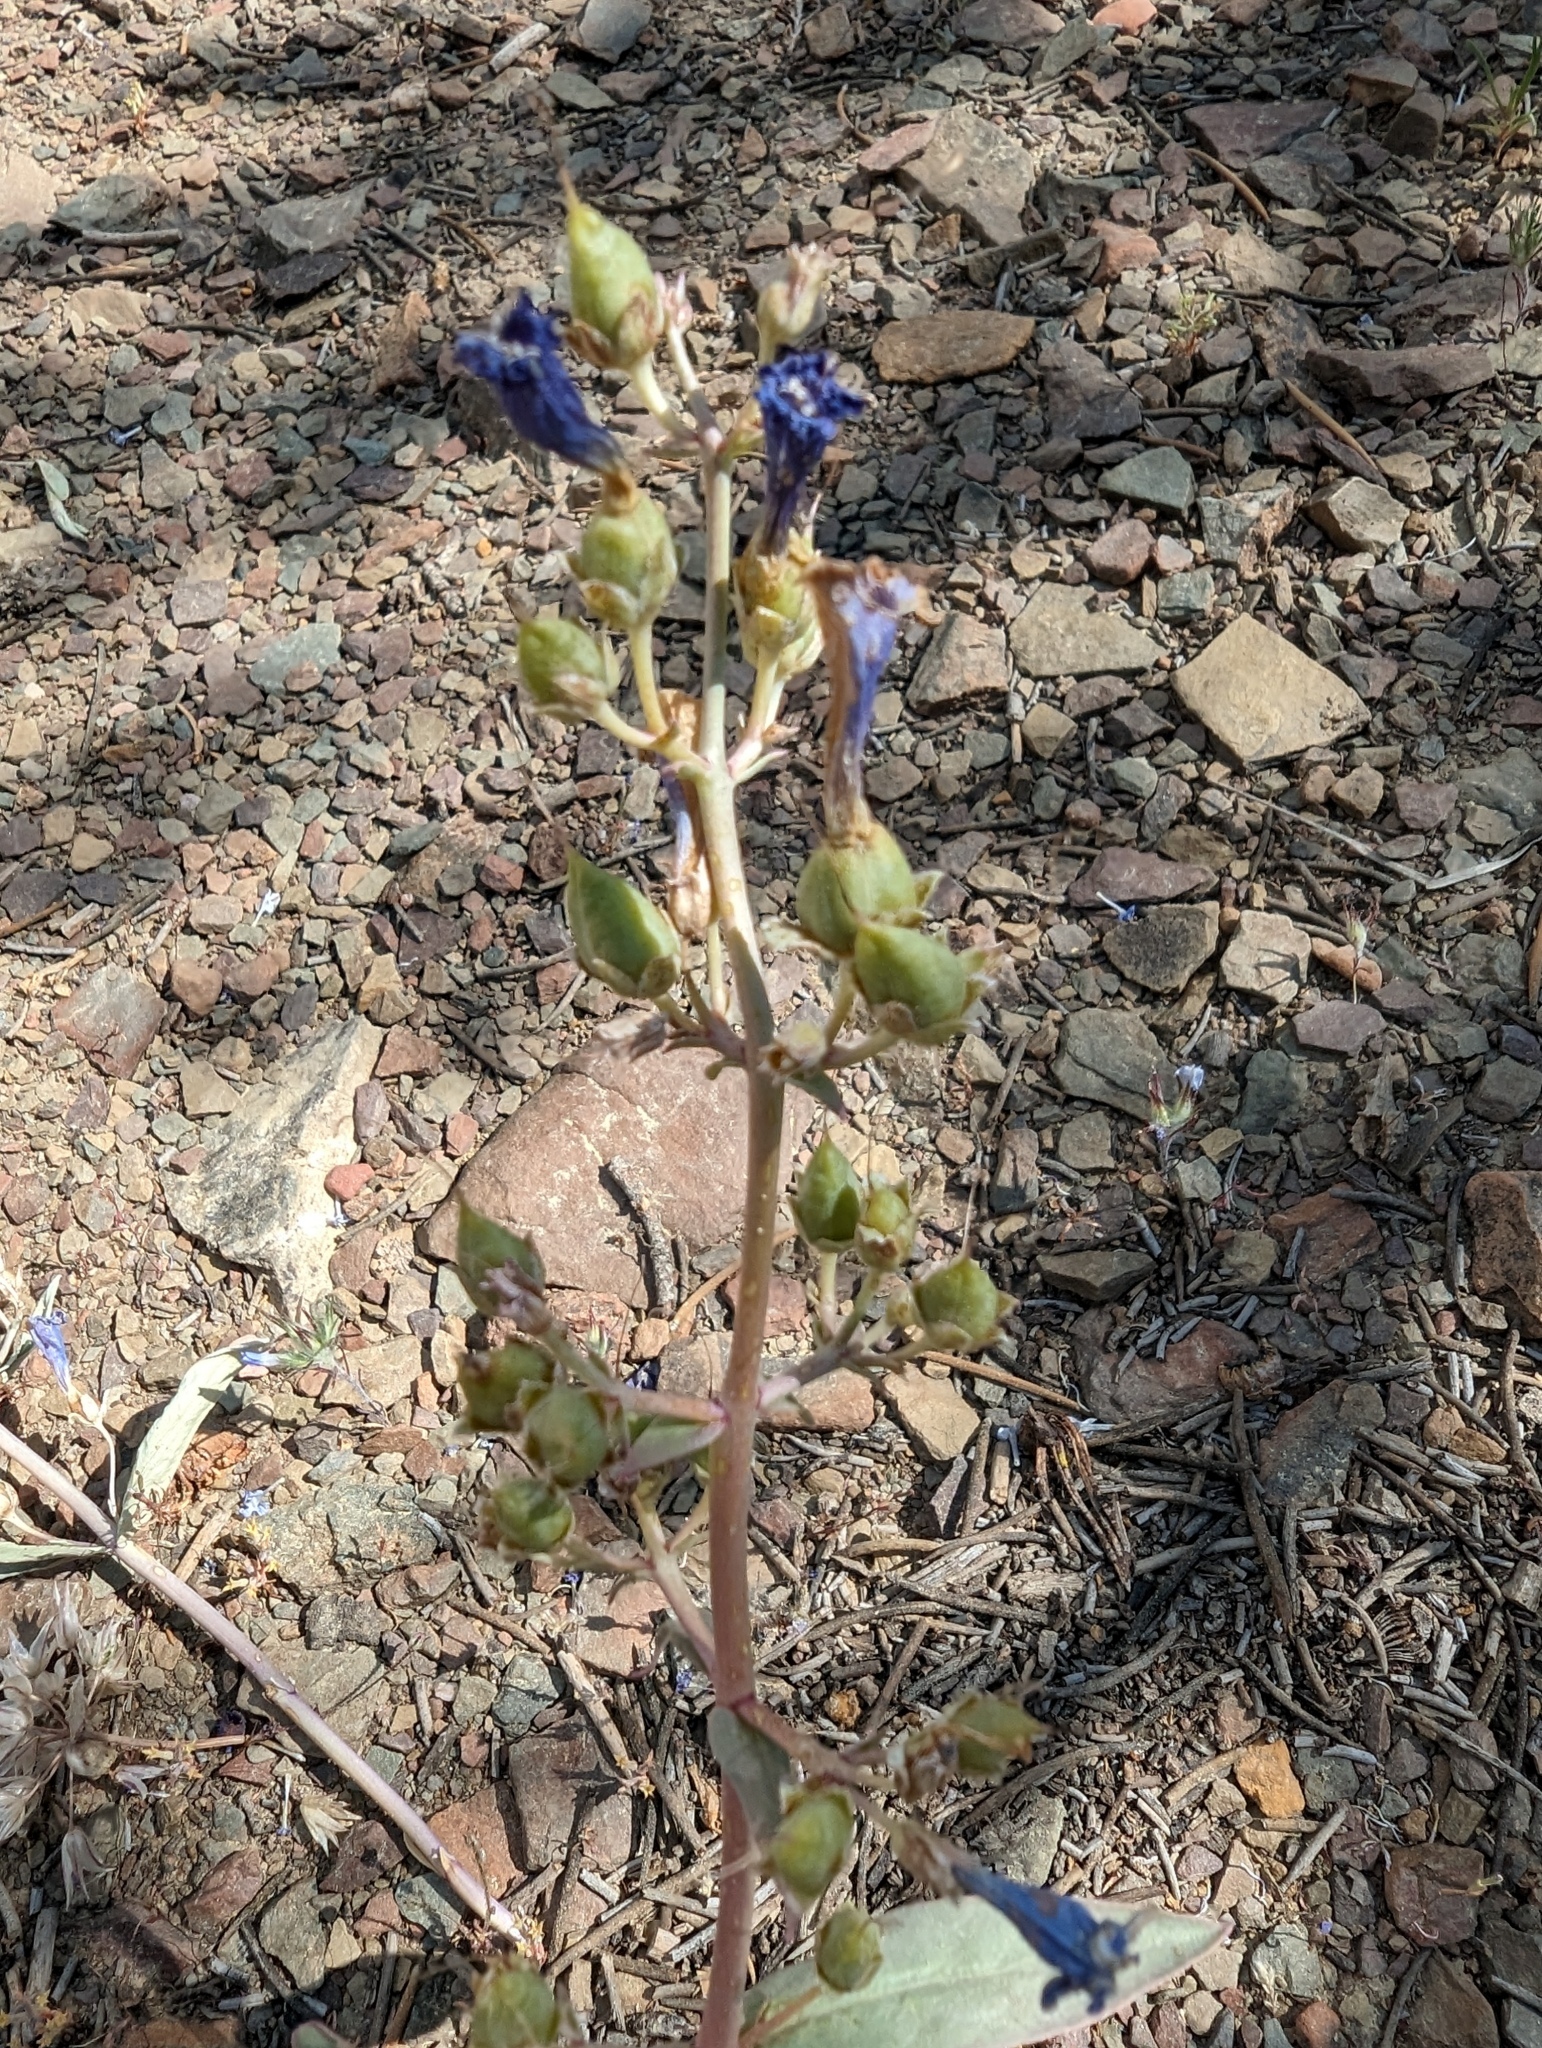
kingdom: Plantae
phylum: Tracheophyta
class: Magnoliopsida
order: Lamiales
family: Plantaginaceae
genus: Penstemon
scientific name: Penstemon patens
